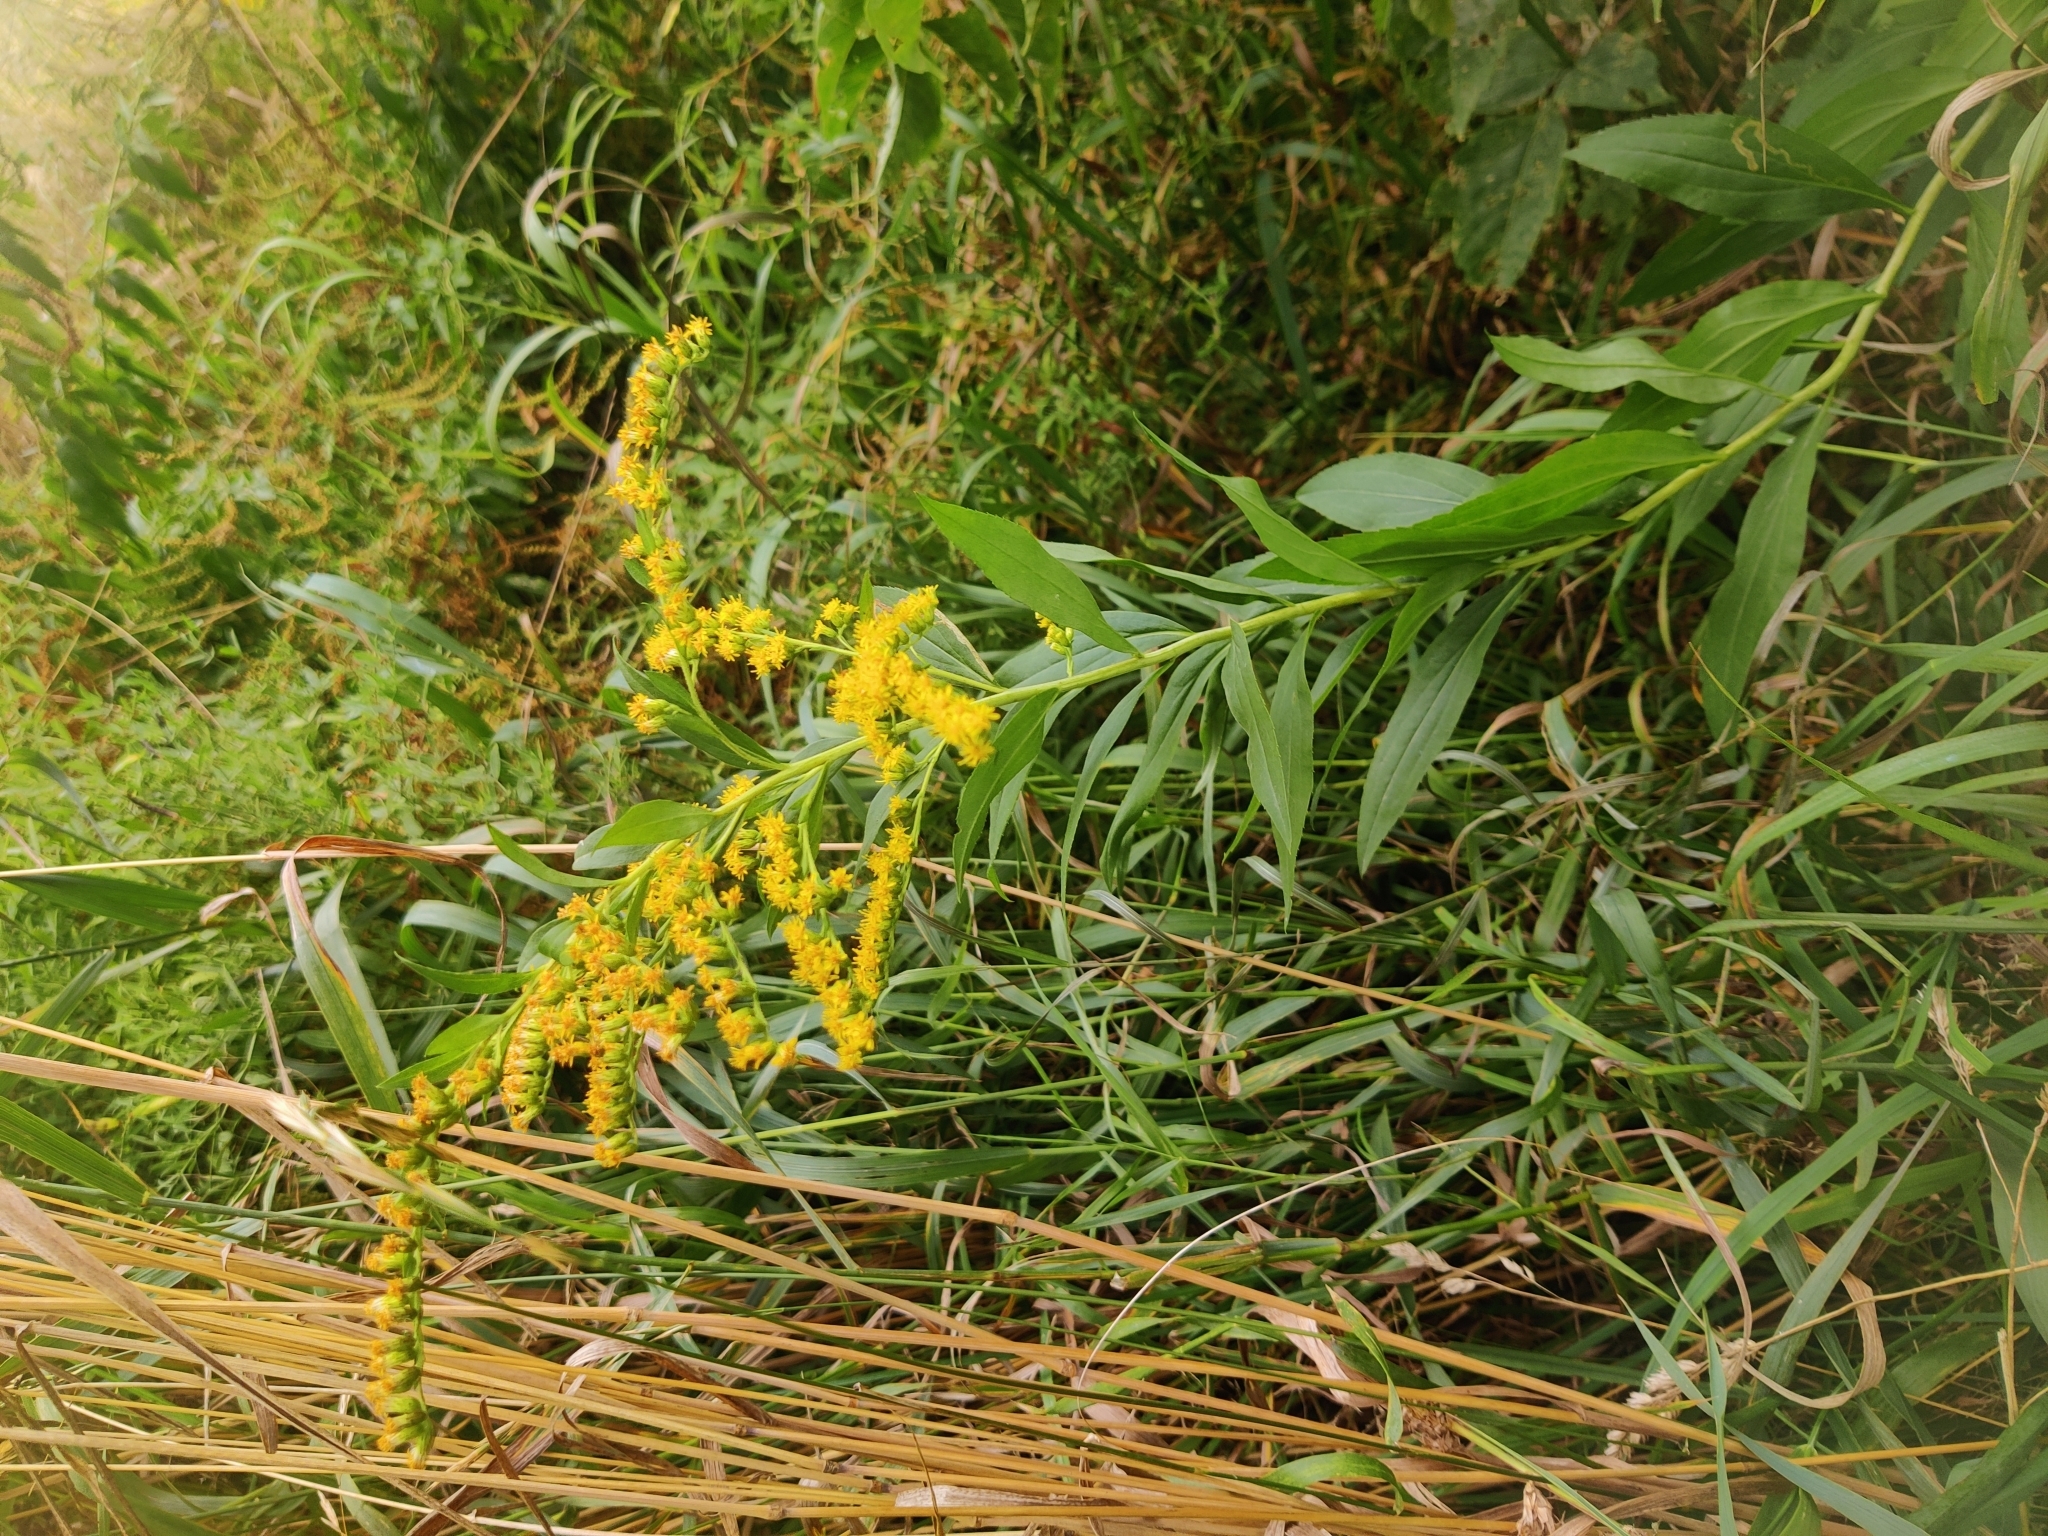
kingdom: Plantae
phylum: Tracheophyta
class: Magnoliopsida
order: Asterales
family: Asteraceae
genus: Solidago
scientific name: Solidago gigantea
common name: Giant goldenrod
